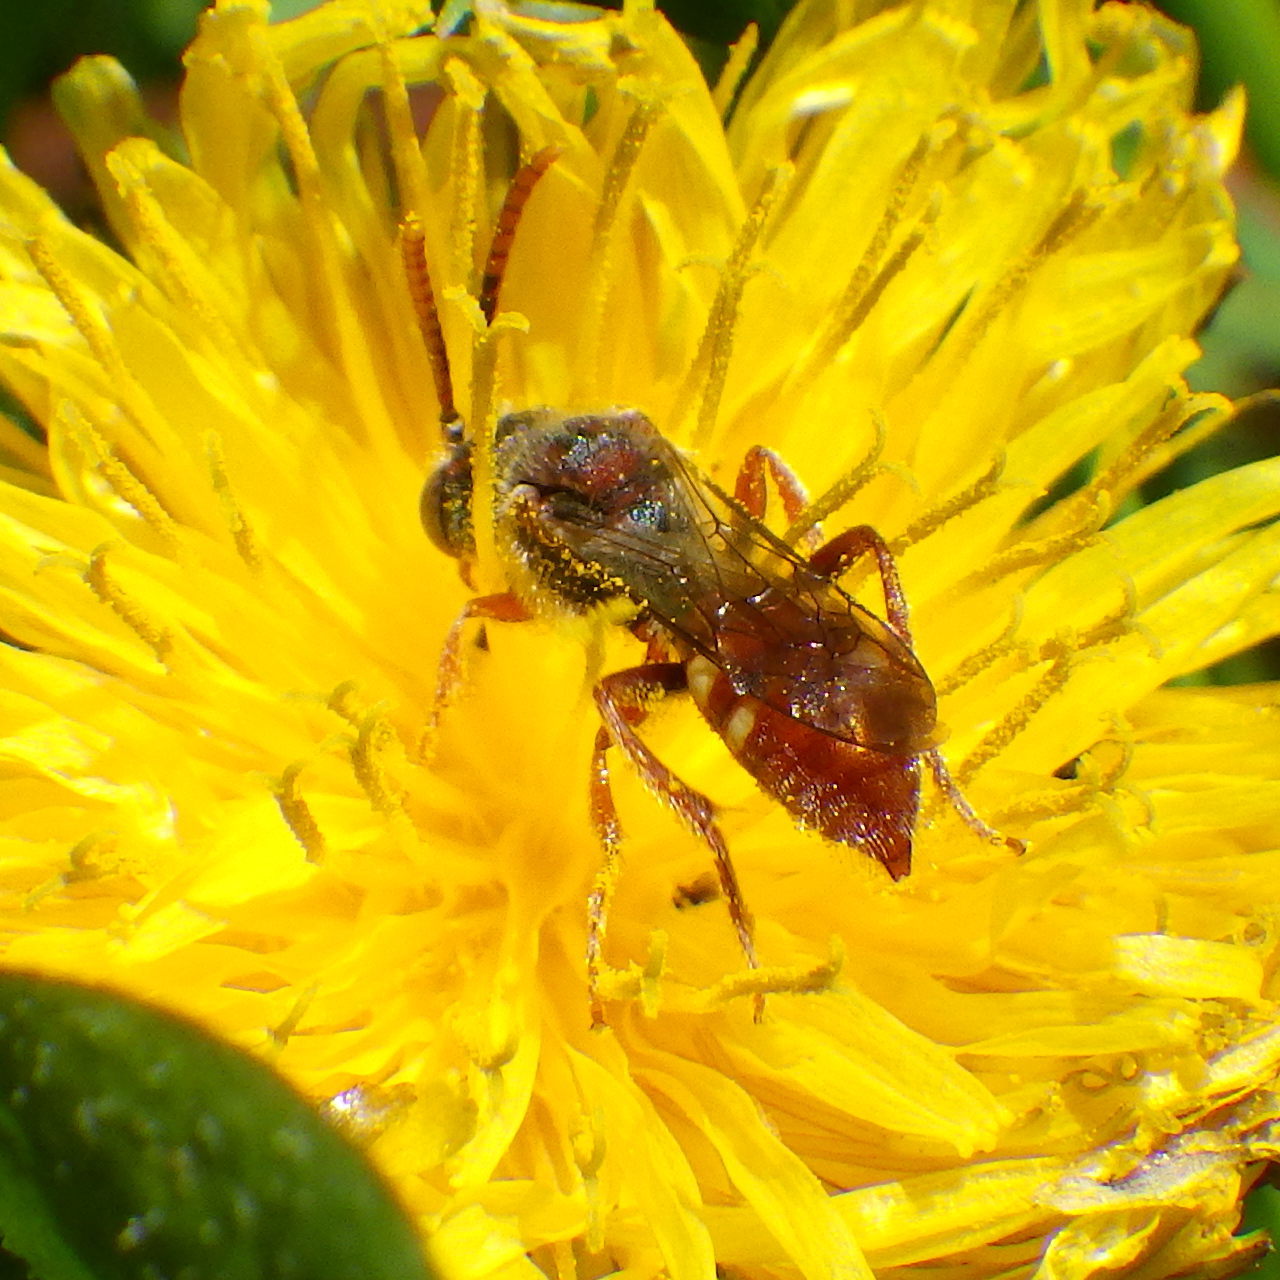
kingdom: Animalia
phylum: Arthropoda
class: Insecta
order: Hymenoptera
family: Apidae
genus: Nomada
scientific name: Nomada cuneata
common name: Cuneate cuckoo nomad bee
